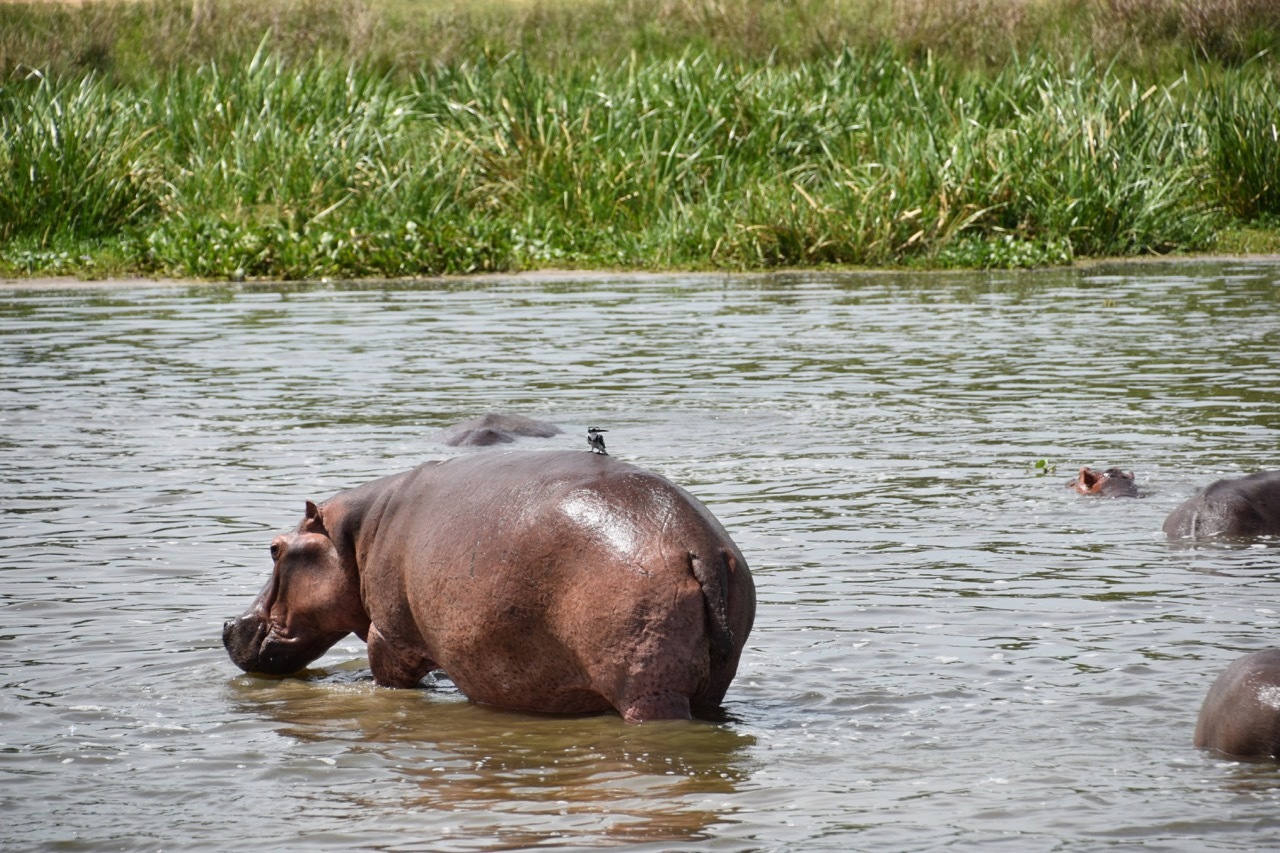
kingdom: Animalia
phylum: Chordata
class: Mammalia
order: Artiodactyla
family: Hippopotamidae
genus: Hippopotamus
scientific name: Hippopotamus amphibius
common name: Common hippopotamus
